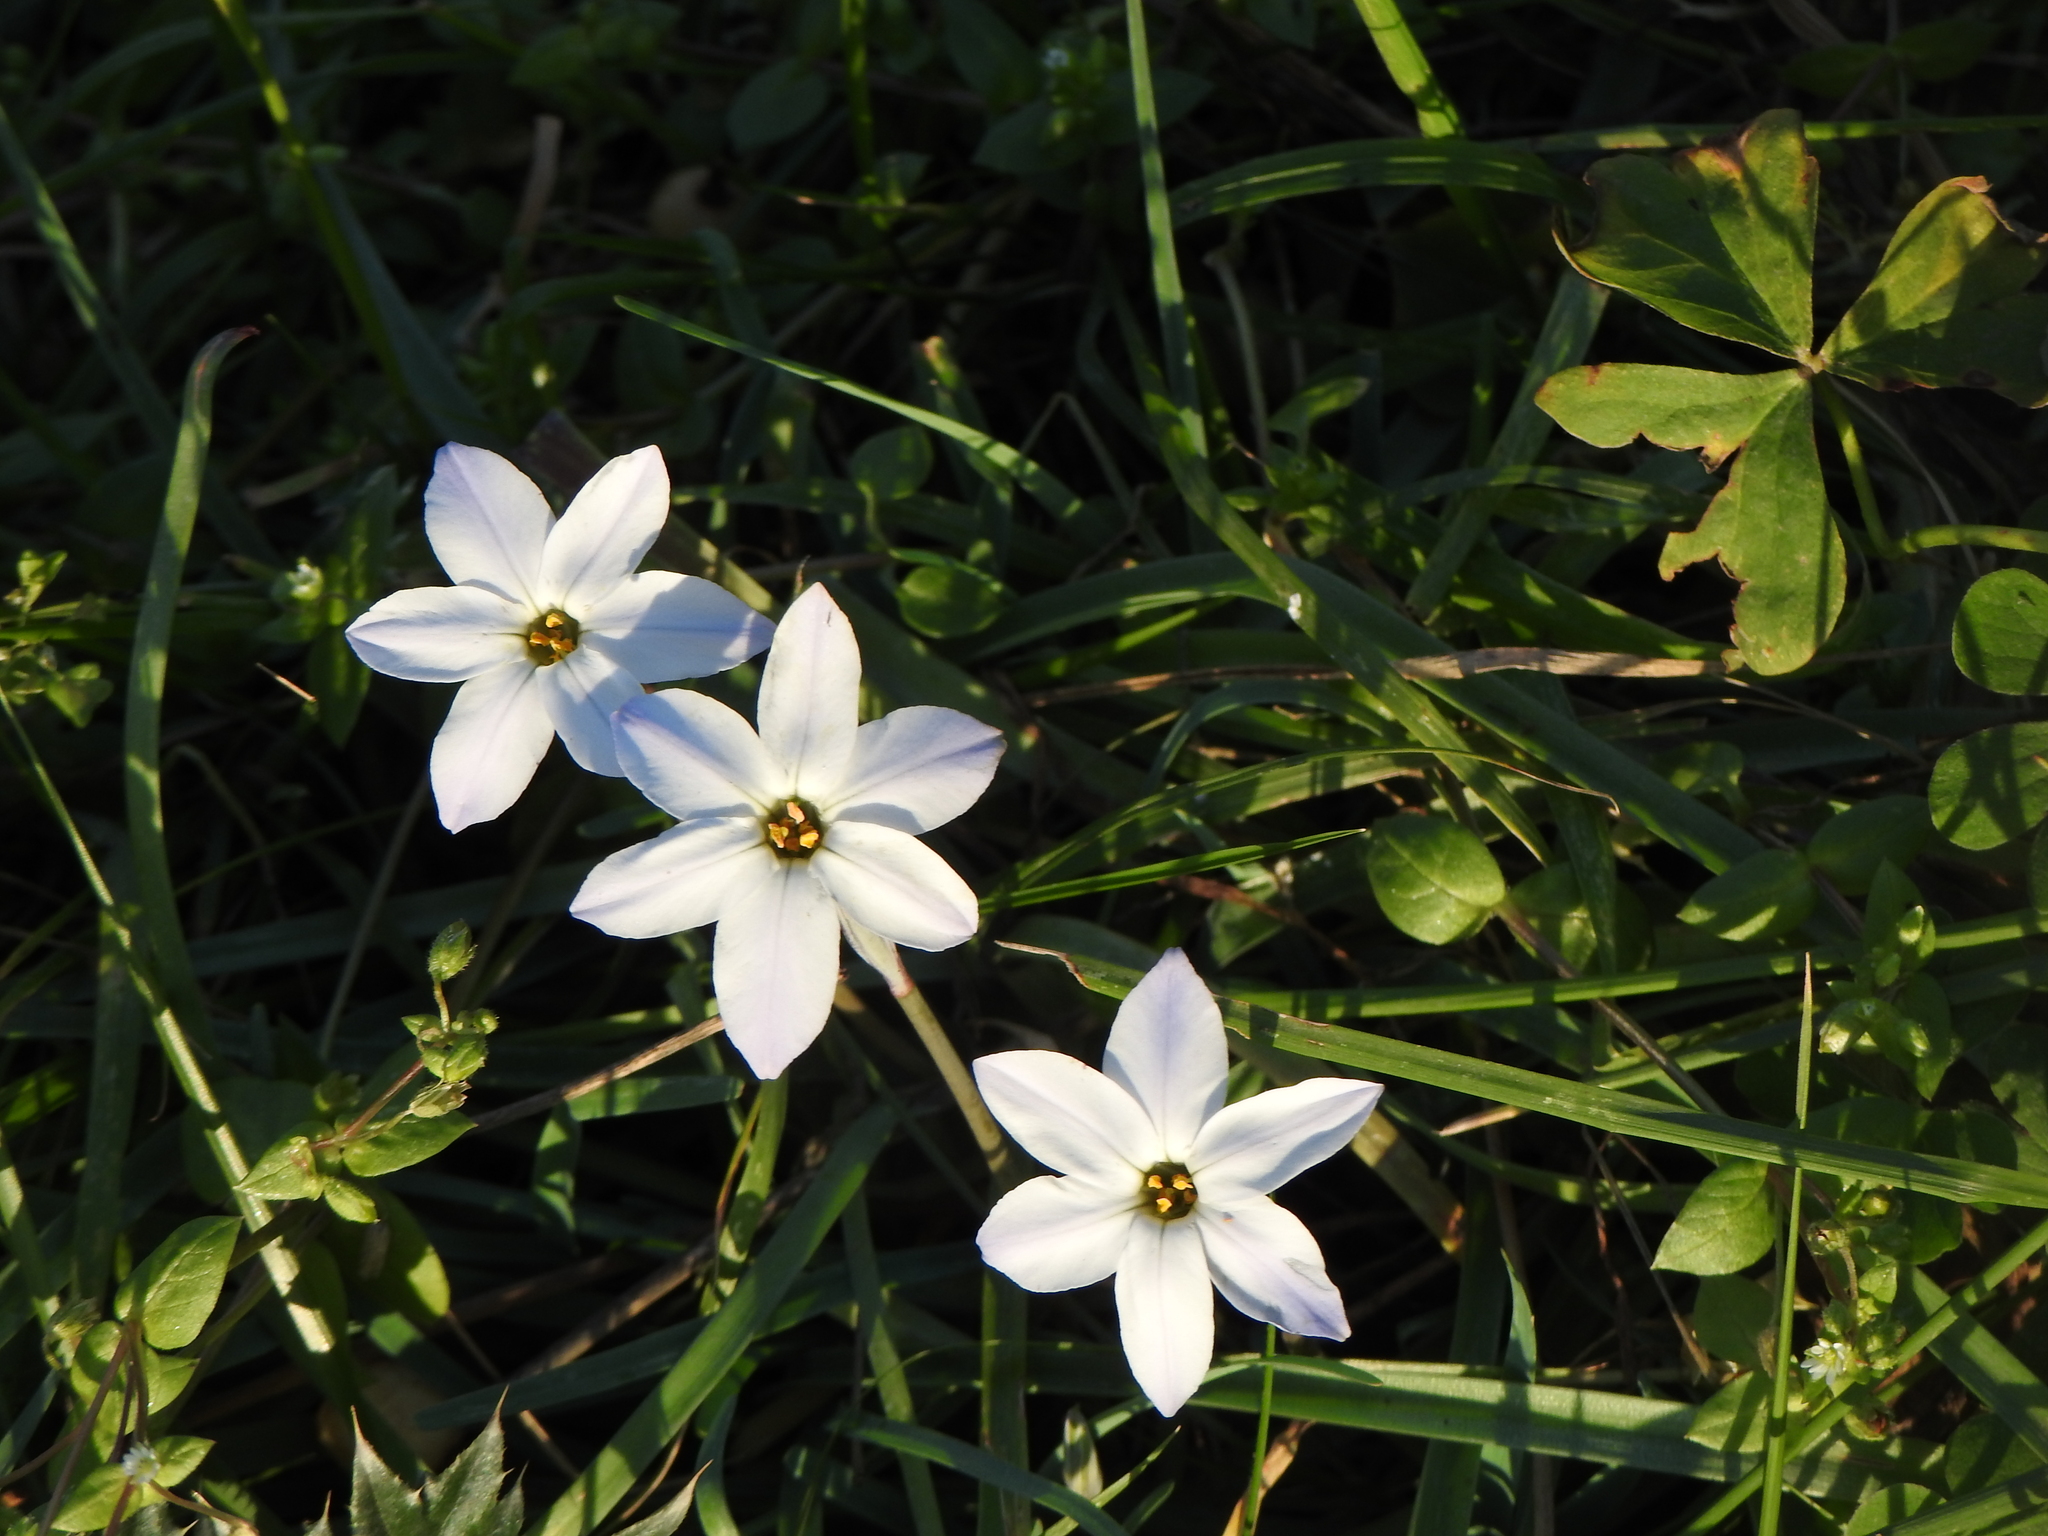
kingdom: Plantae
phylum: Tracheophyta
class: Liliopsida
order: Asparagales
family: Amaryllidaceae
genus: Ipheion
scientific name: Ipheion uniflorum
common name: Spring starflower
